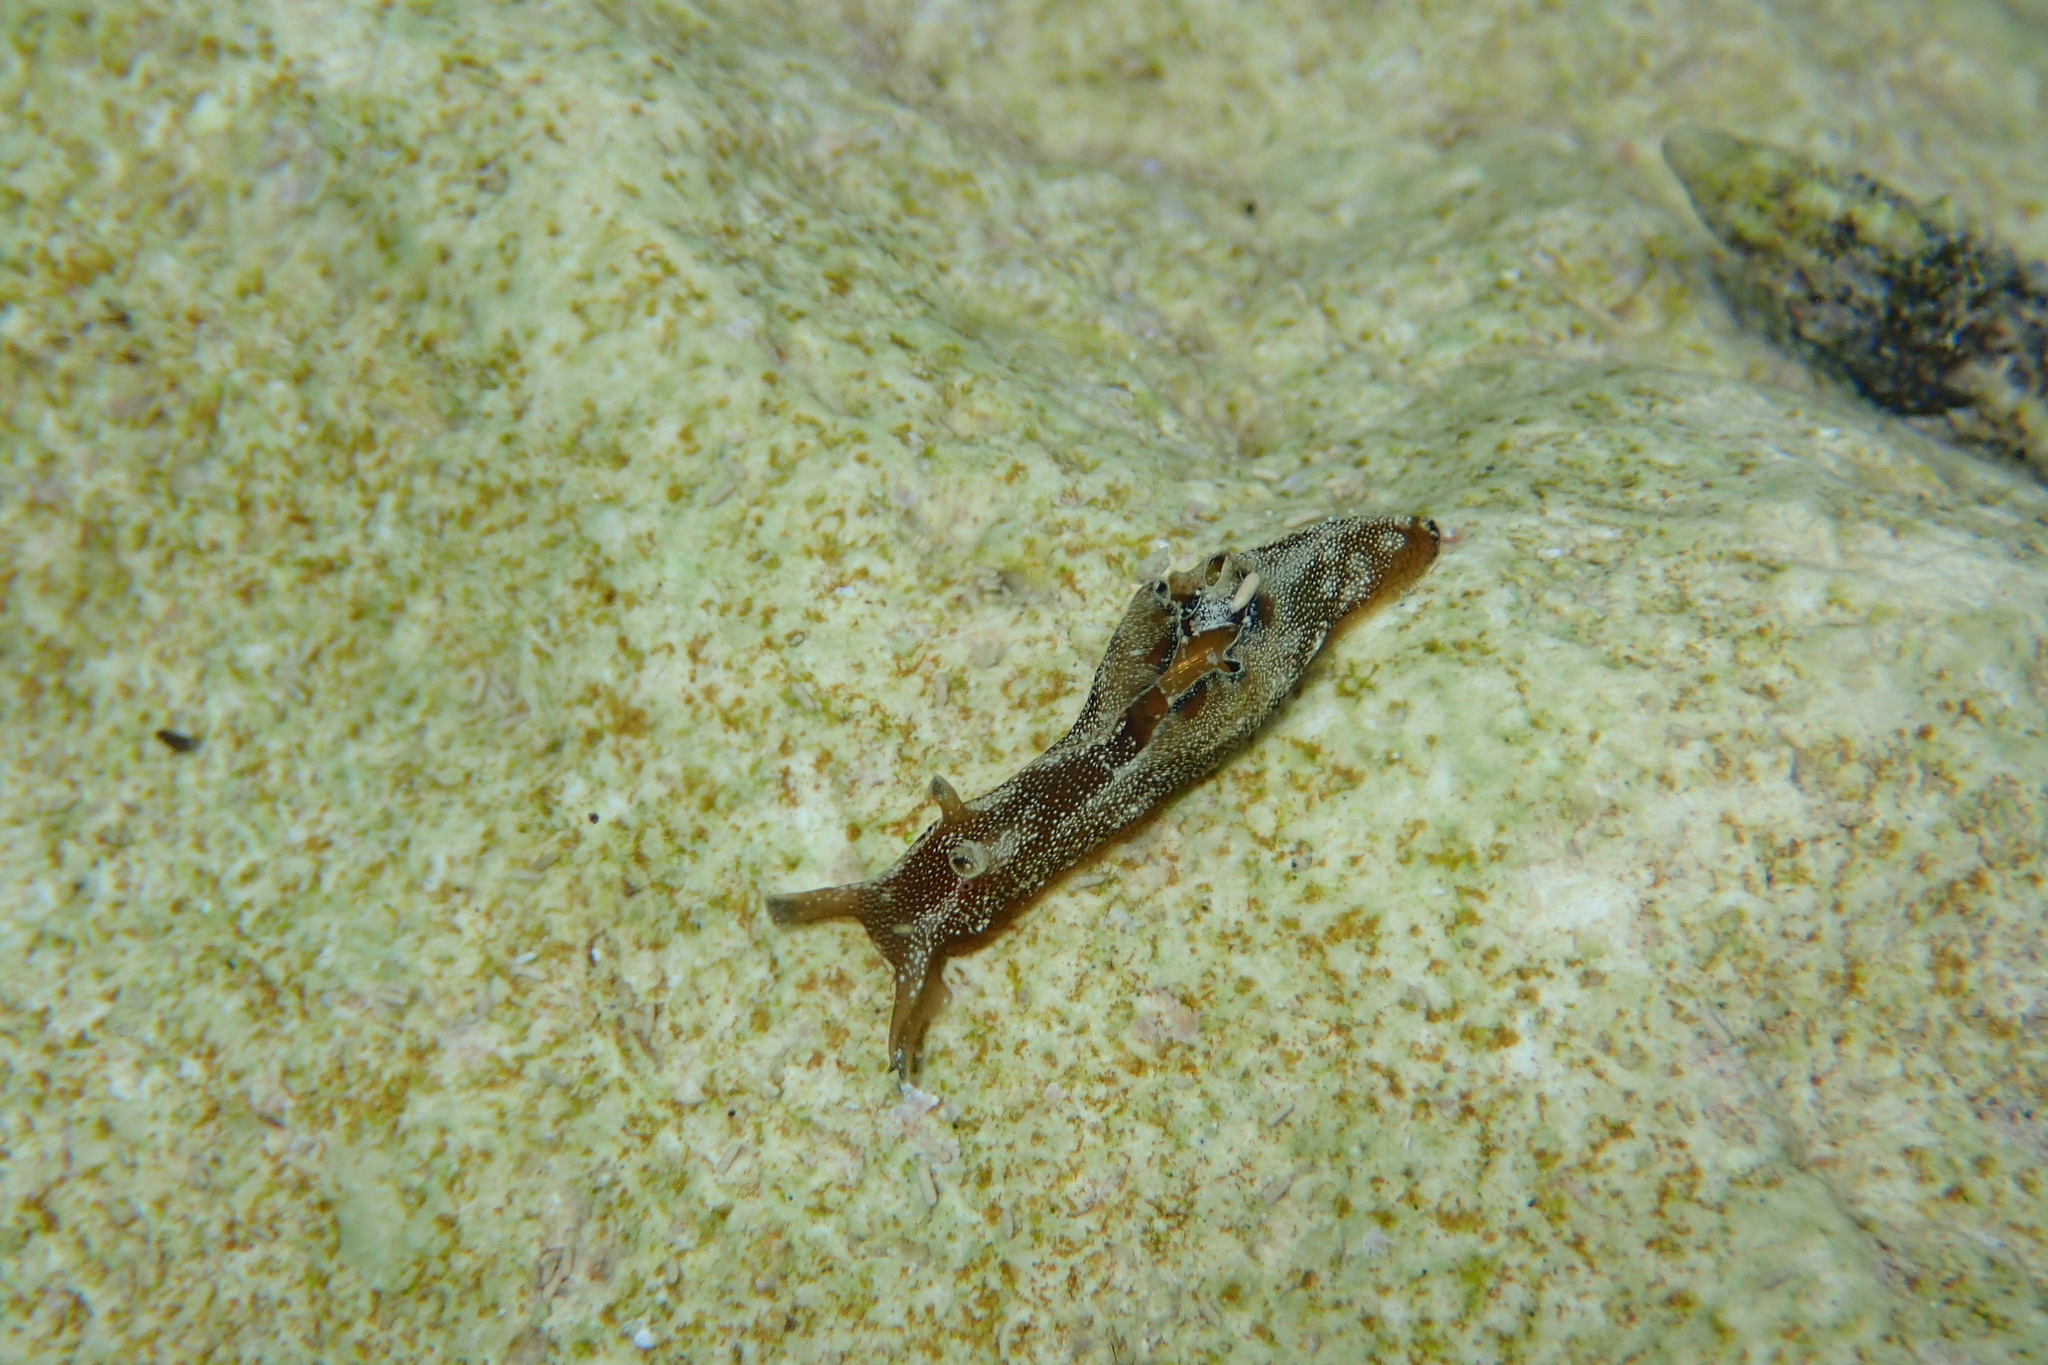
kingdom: Animalia
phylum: Mollusca
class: Gastropoda
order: Aplysiida
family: Aplysiidae
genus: Aplysia
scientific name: Aplysia punctata
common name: Common sea hare
